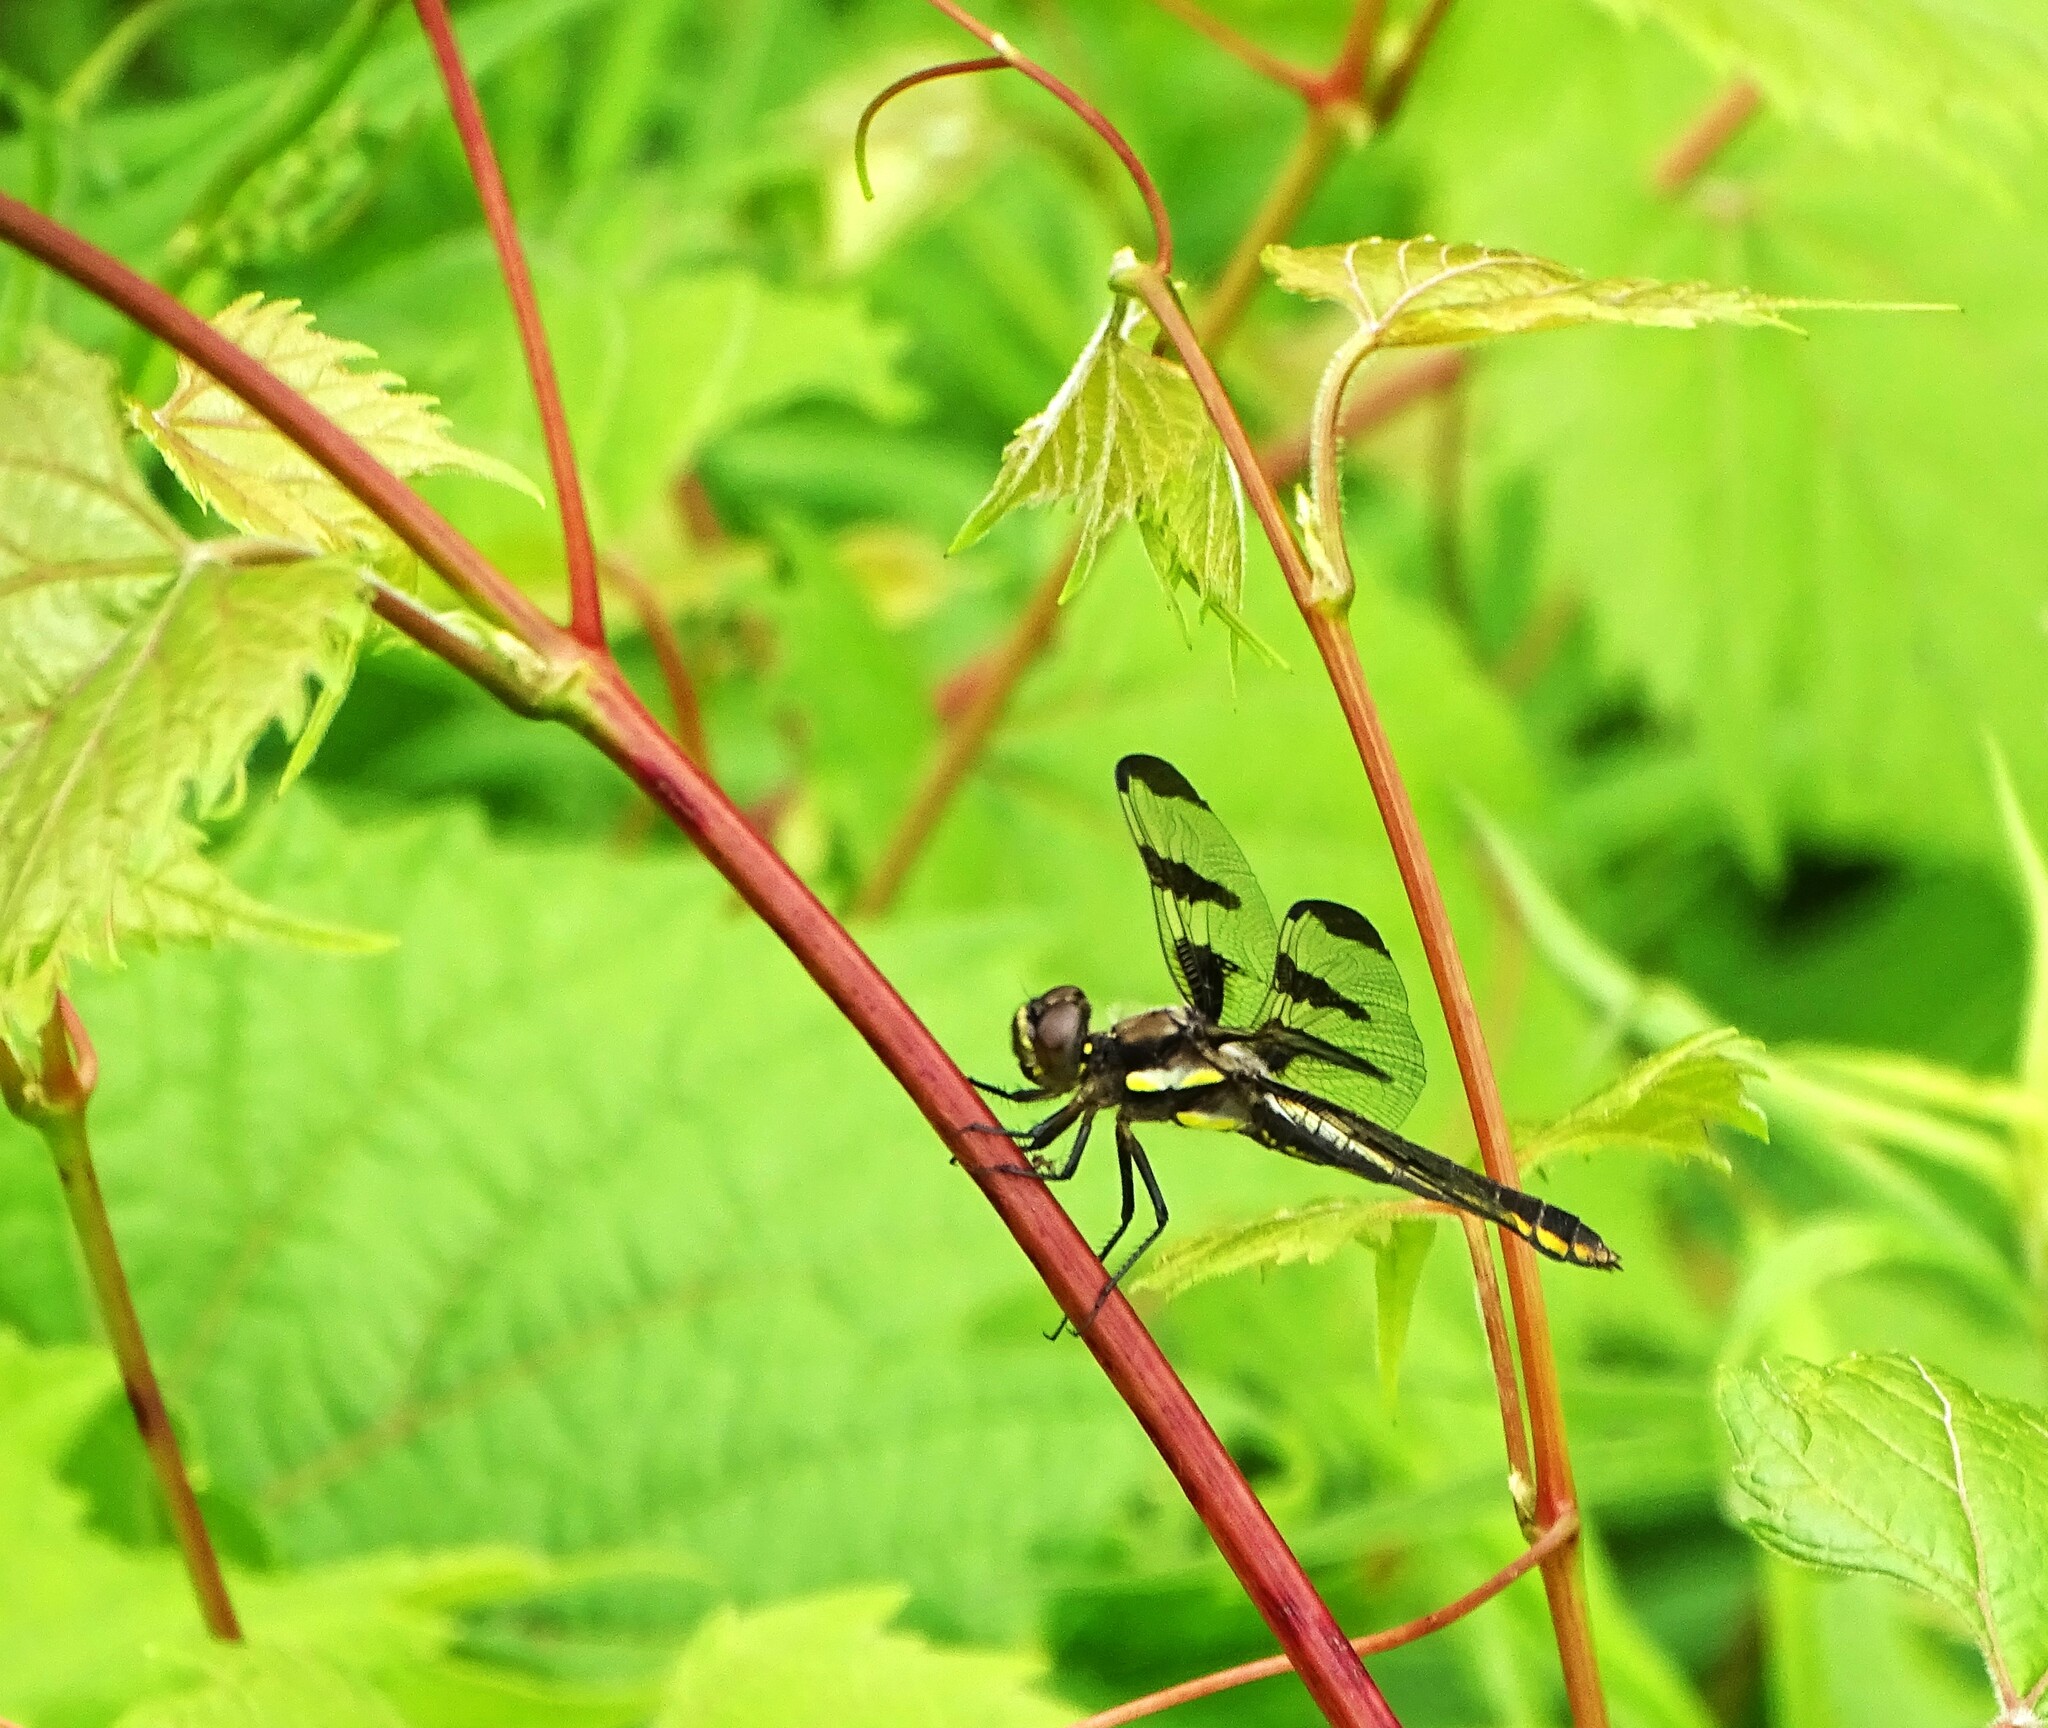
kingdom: Animalia
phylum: Arthropoda
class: Insecta
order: Odonata
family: Libellulidae
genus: Libellula
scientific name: Libellula pulchella
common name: Twelve-spotted skimmer
